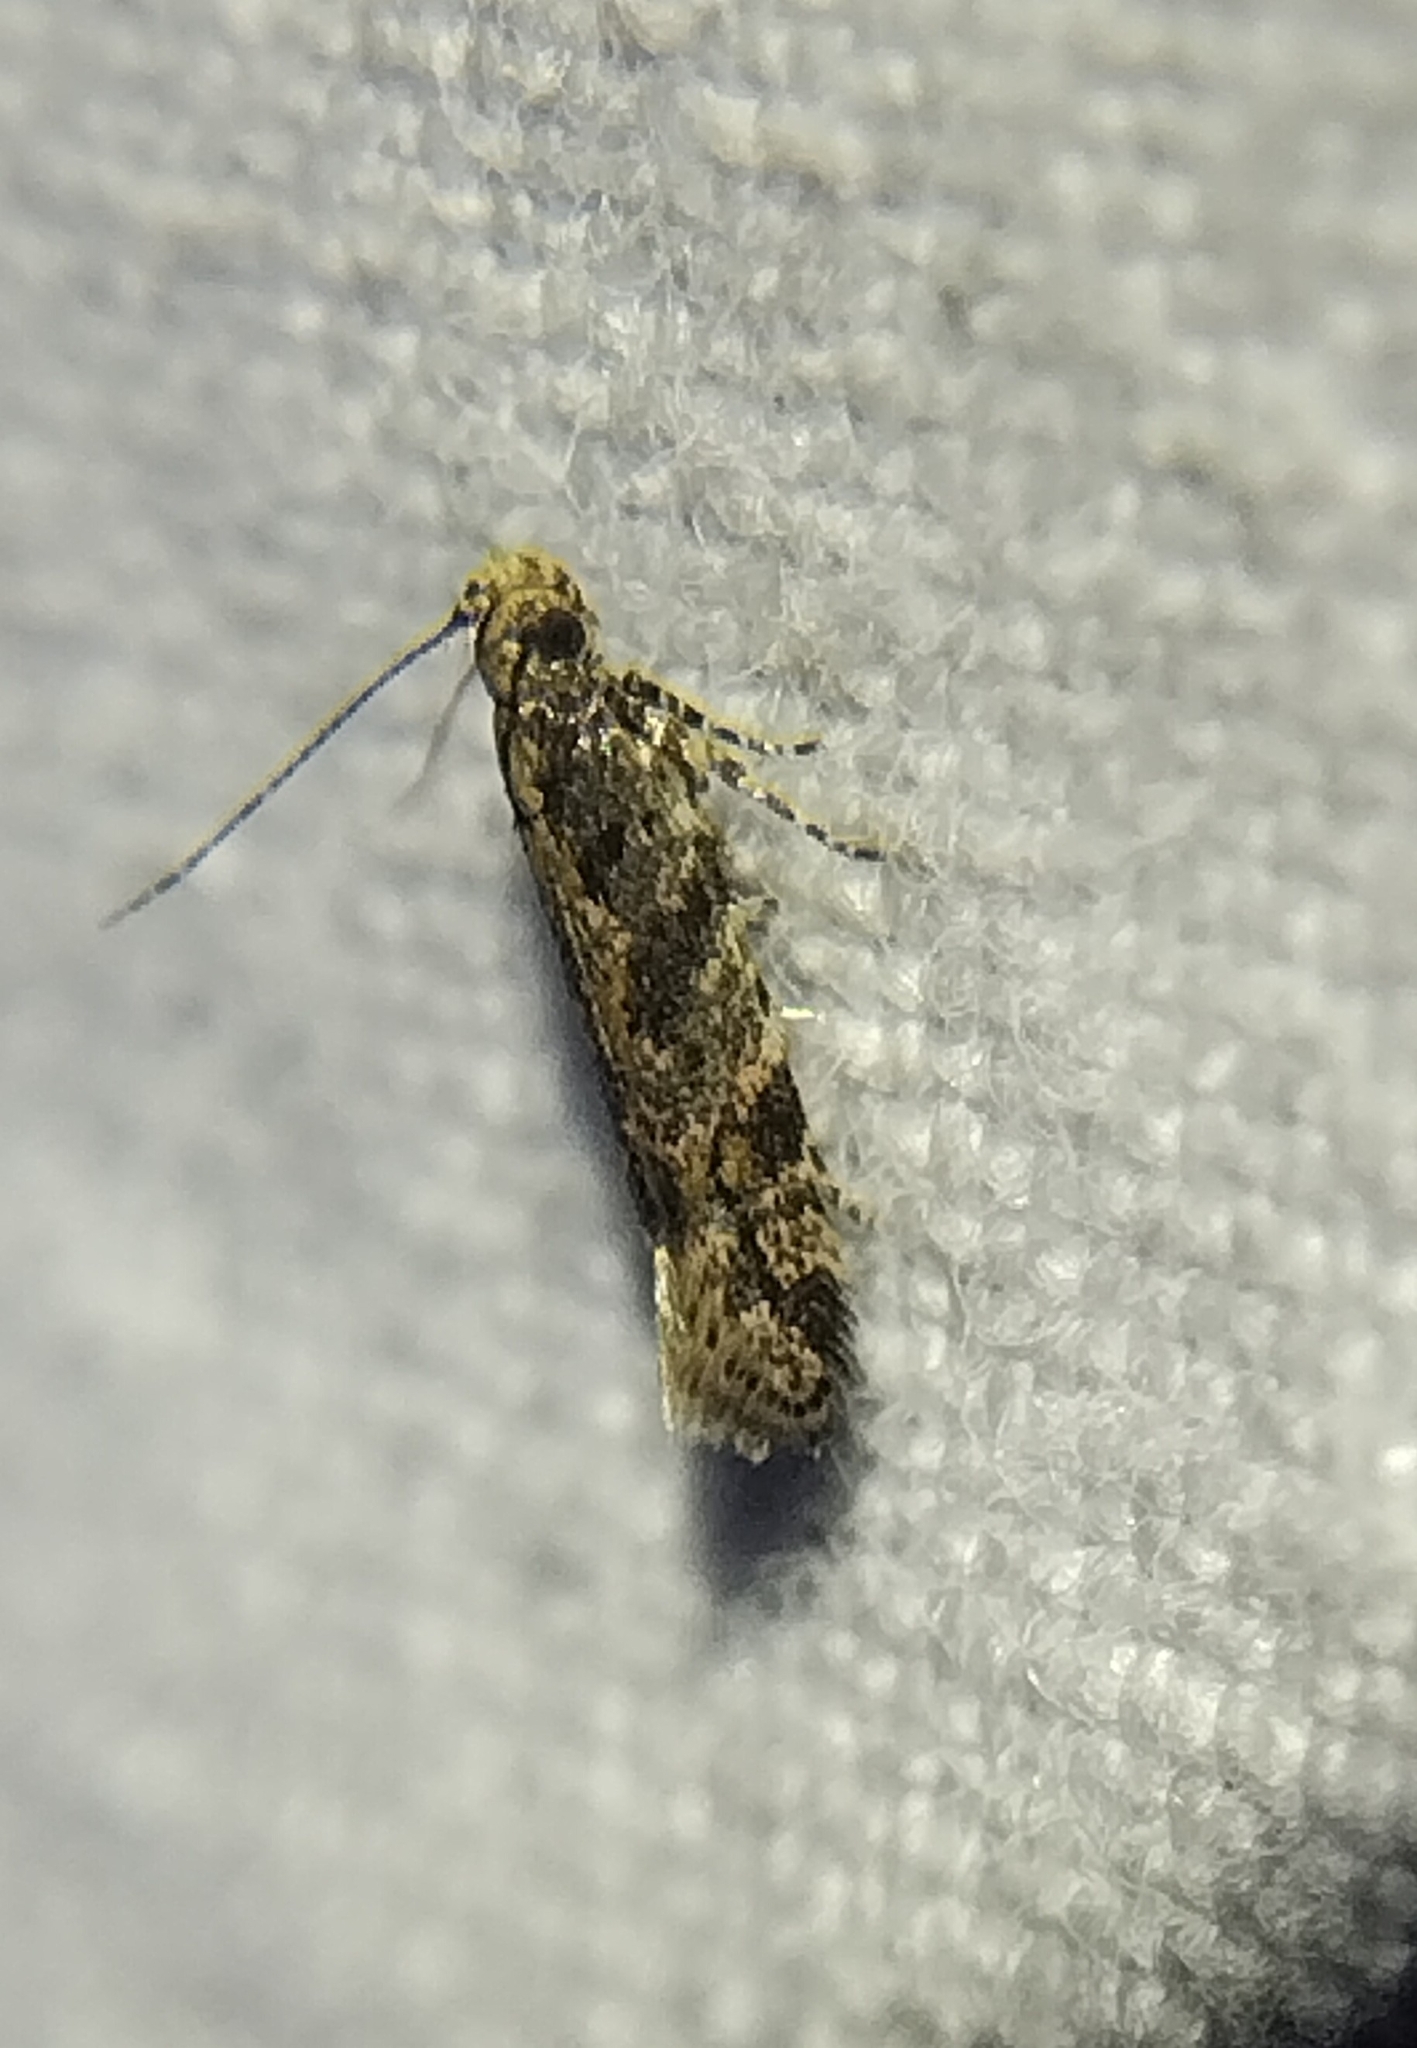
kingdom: Animalia
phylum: Arthropoda
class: Insecta
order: Lepidoptera
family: Gelechiidae
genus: Aristotelia
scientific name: Aristotelia rubidella
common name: Ruby aristotelia moth
